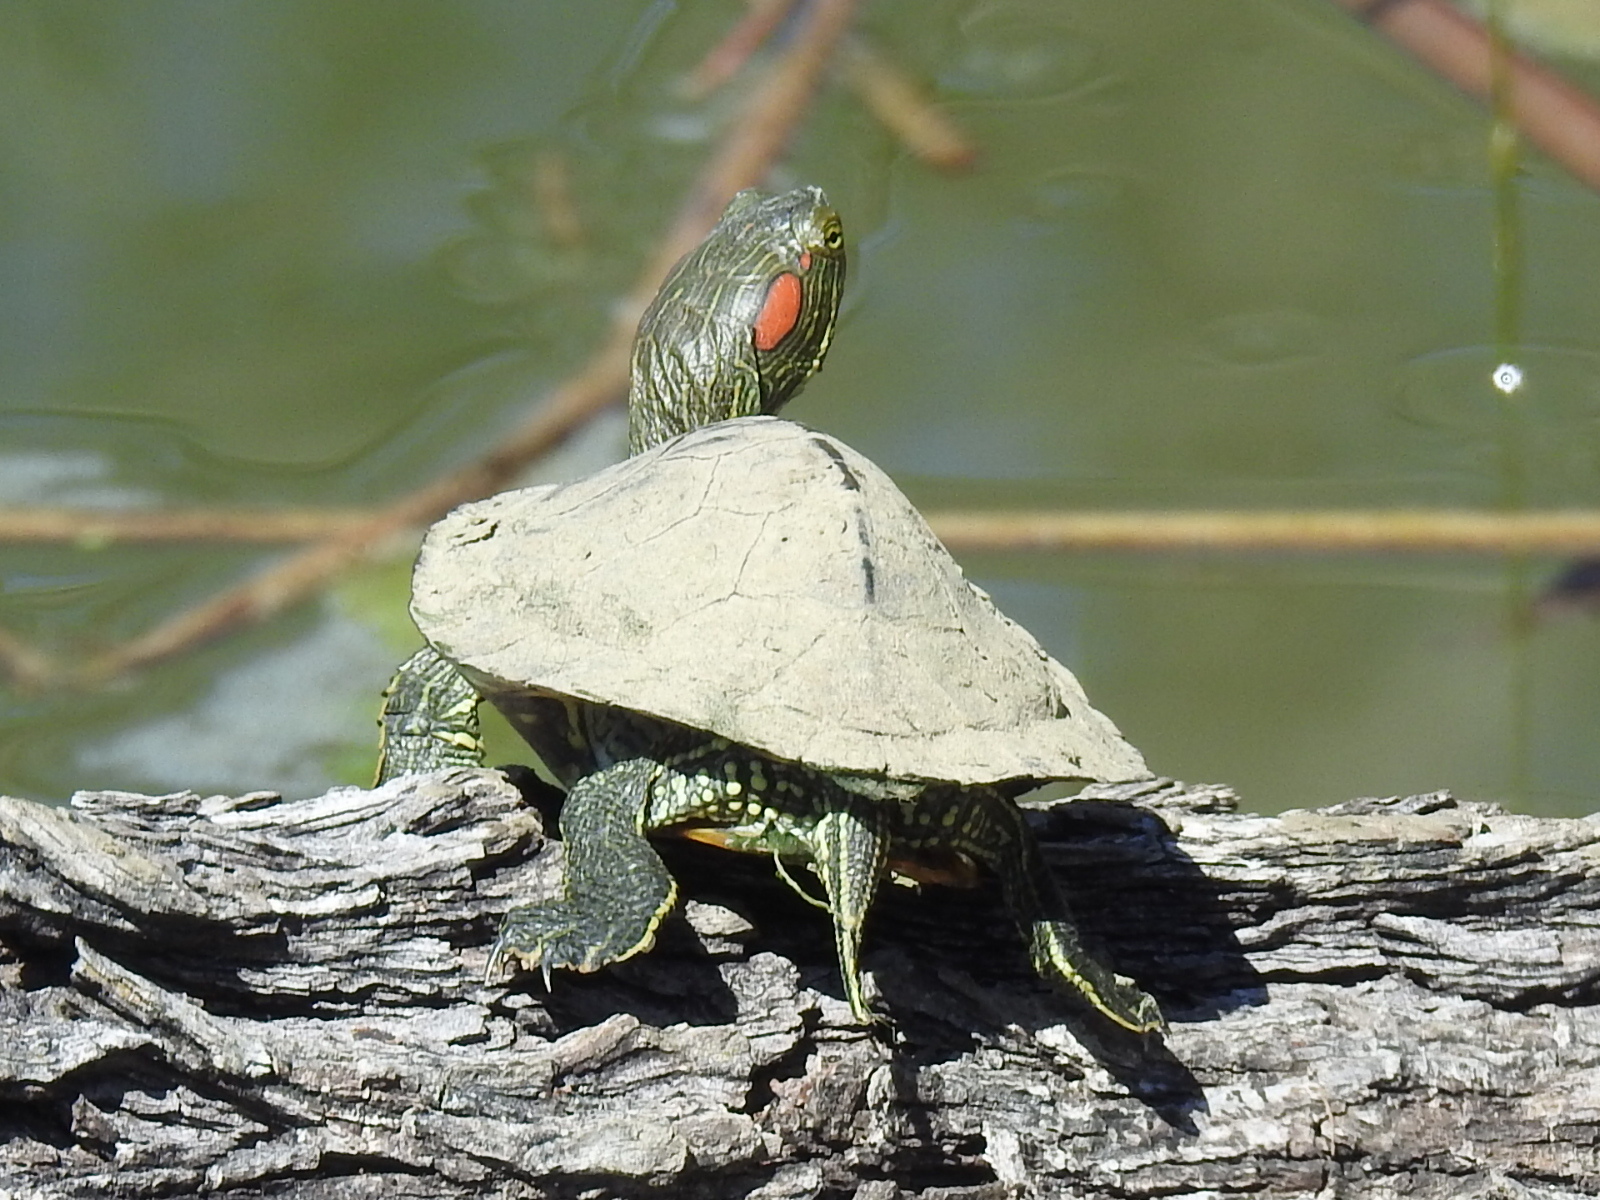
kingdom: Animalia
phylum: Chordata
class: Testudines
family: Emydidae
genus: Trachemys
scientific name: Trachemys scripta
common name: Slider
